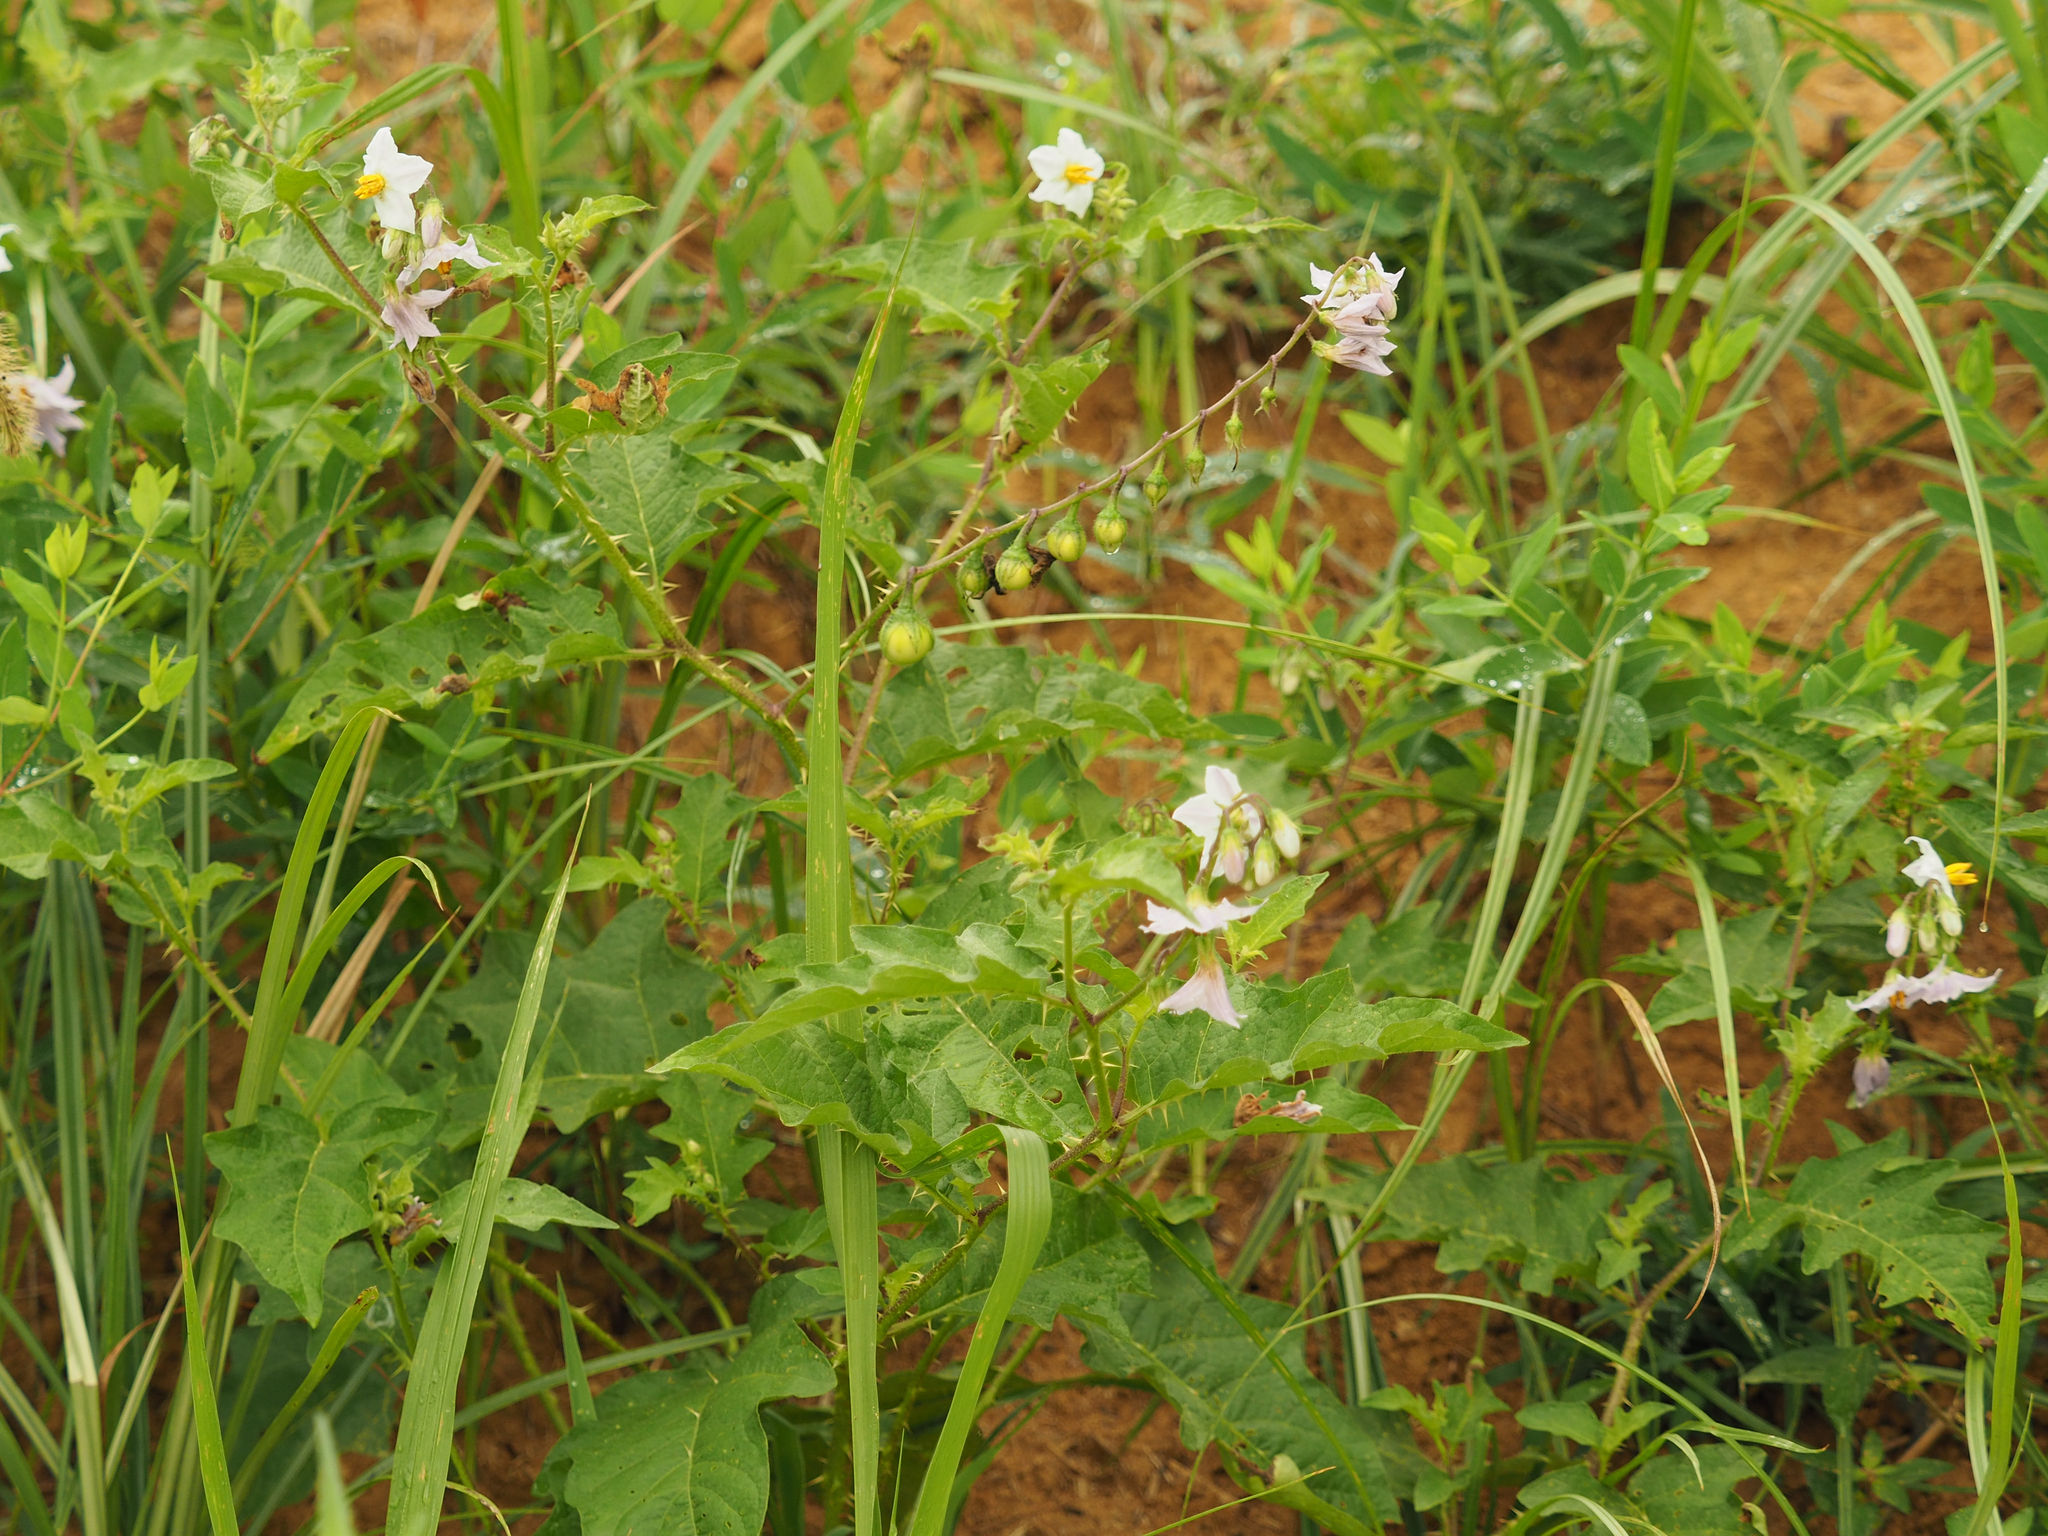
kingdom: Plantae
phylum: Tracheophyta
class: Magnoliopsida
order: Solanales
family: Solanaceae
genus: Solanum
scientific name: Solanum carolinense
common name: Horse-nettle
